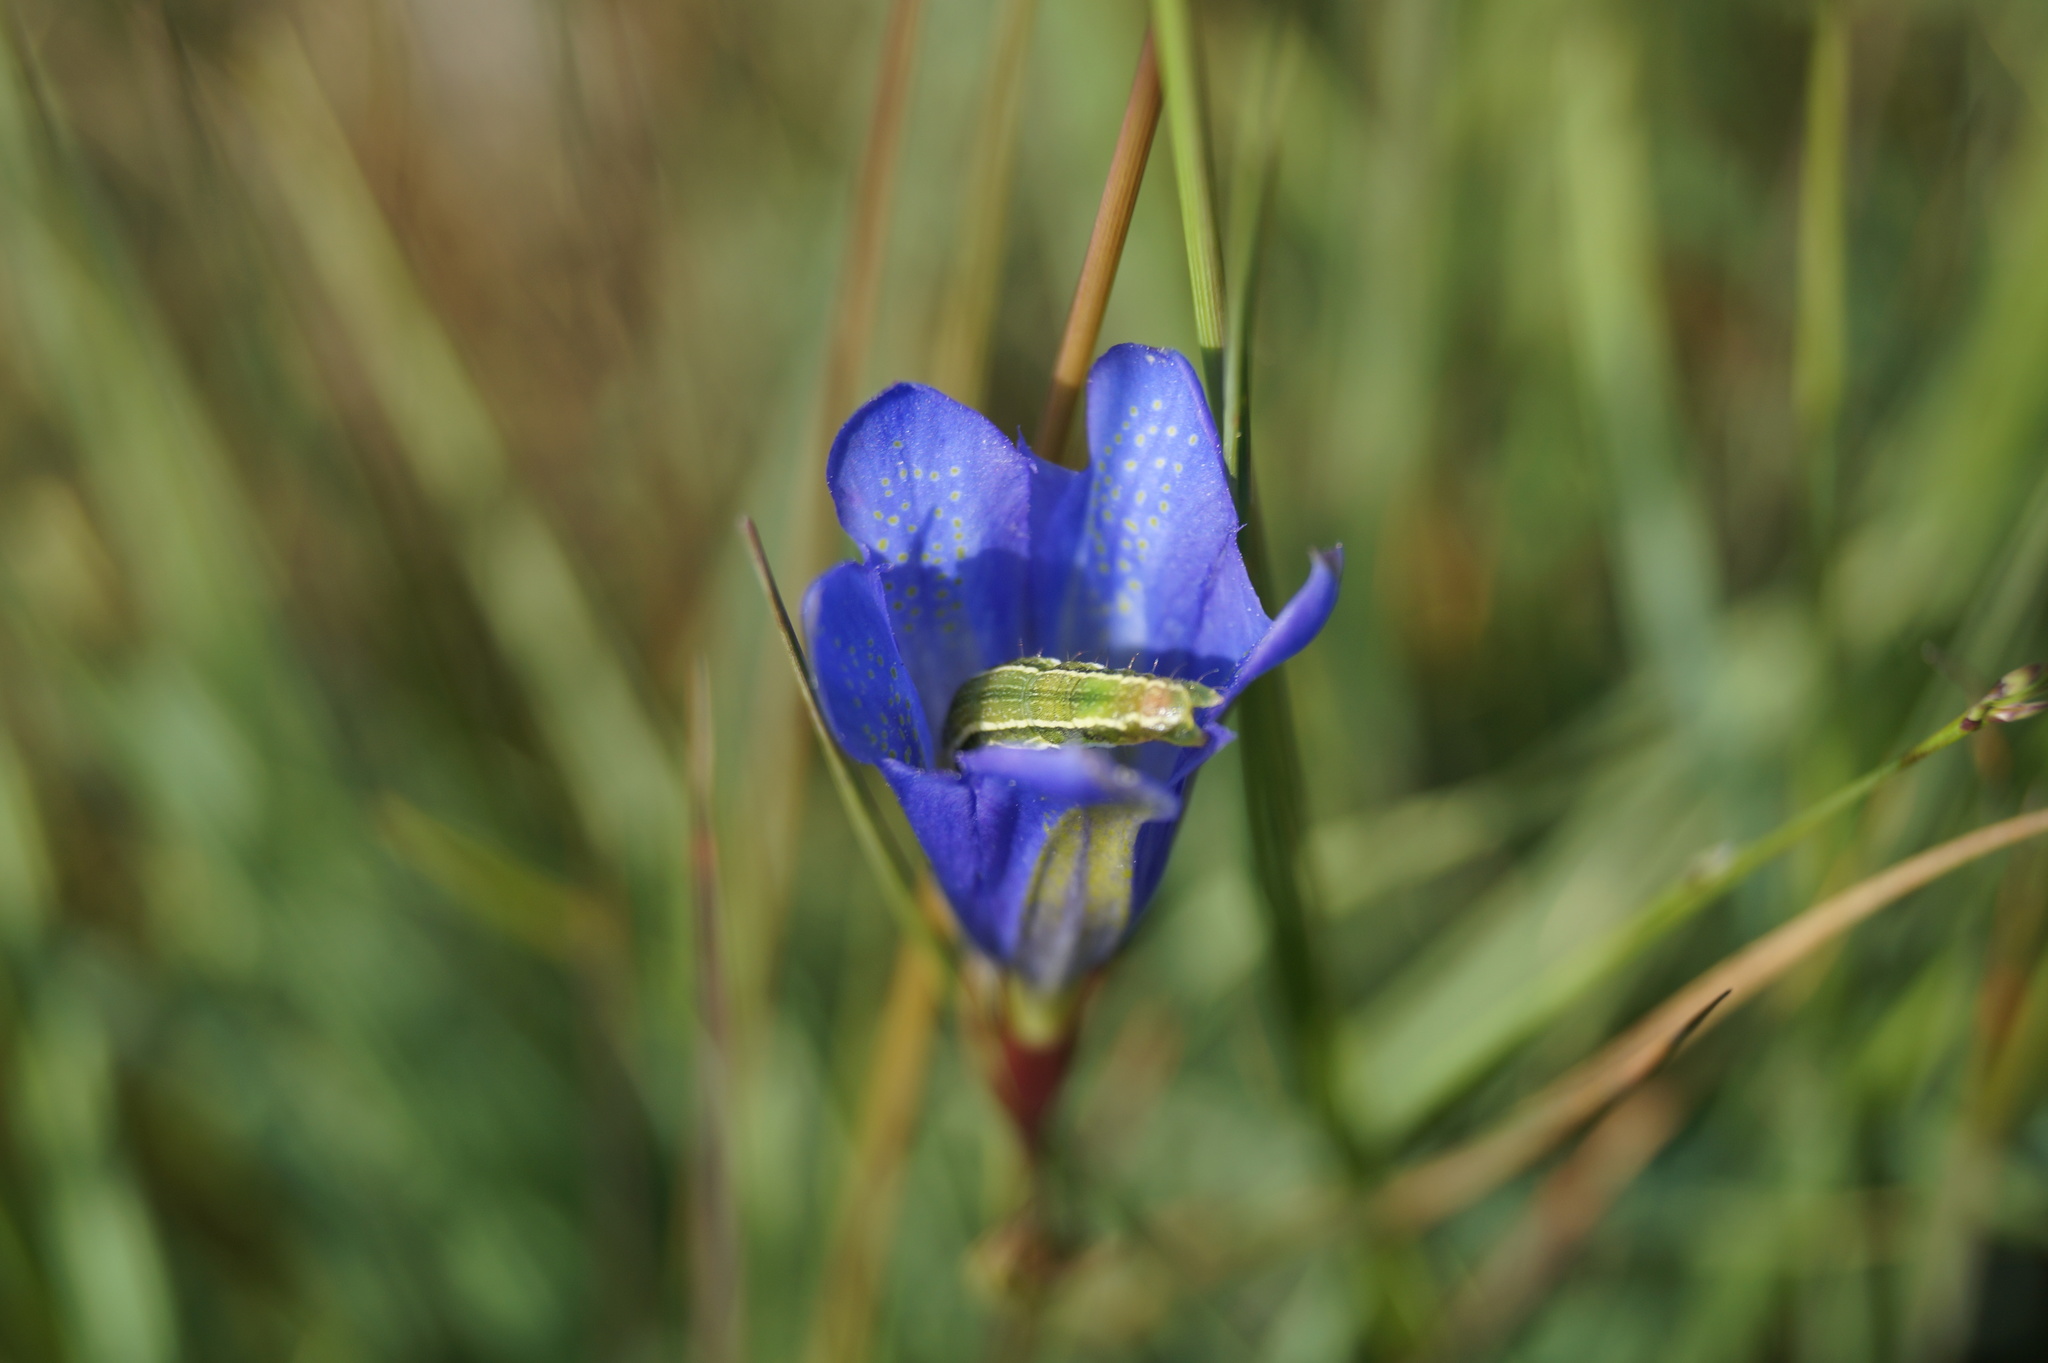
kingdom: Plantae
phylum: Tracheophyta
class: Magnoliopsida
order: Gentianales
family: Gentianaceae
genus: Gentiana
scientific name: Gentiana pneumonanthe
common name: Marsh gentian
